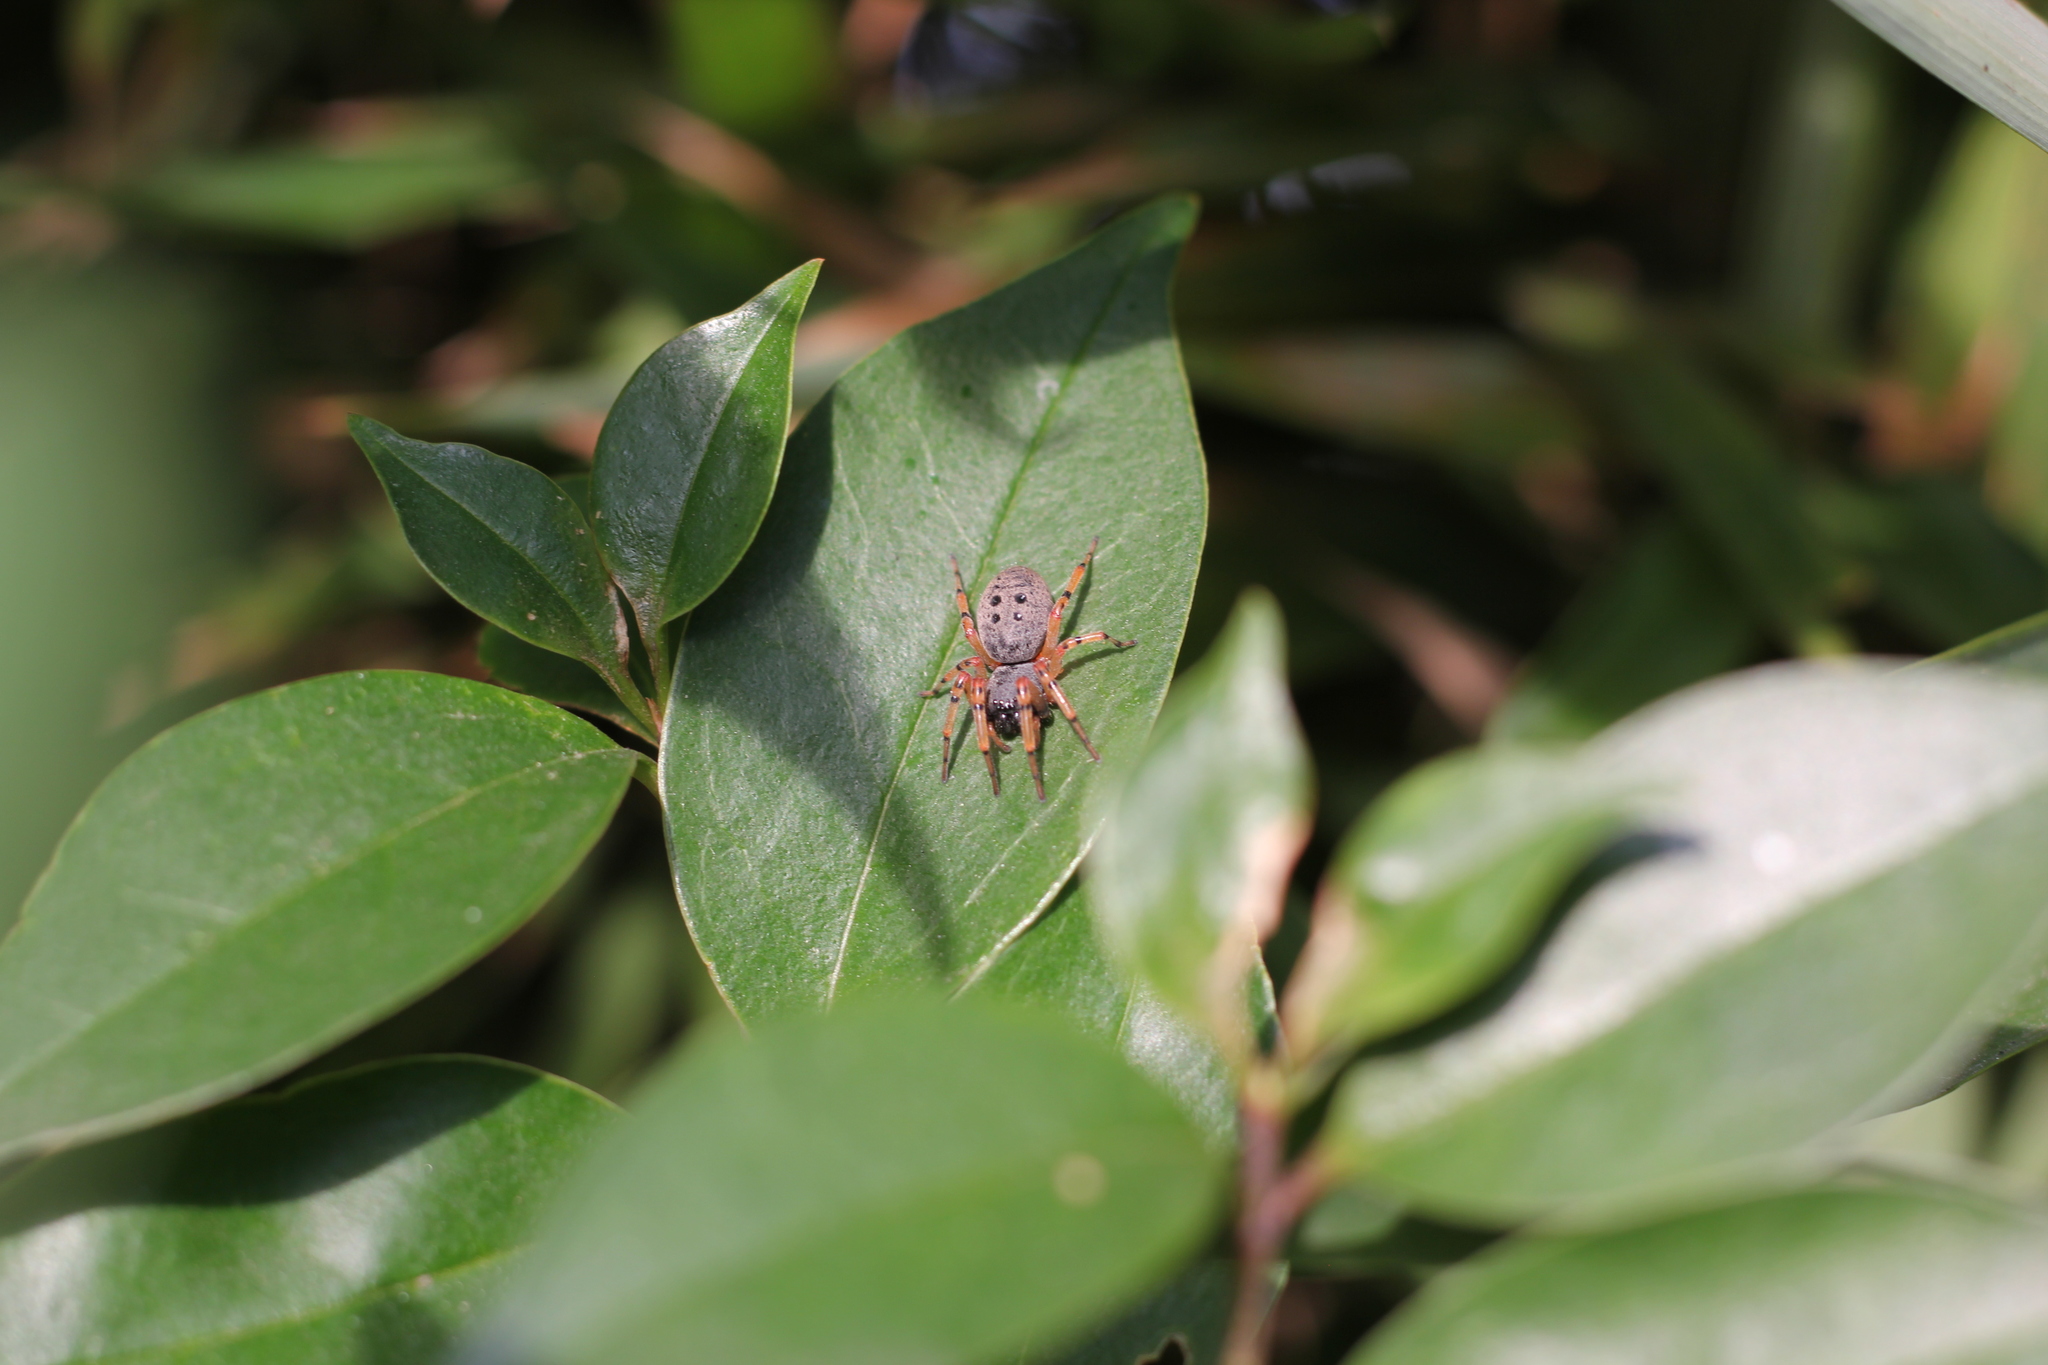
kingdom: Animalia
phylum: Arthropoda
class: Arachnida
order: Araneae
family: Trachelidae
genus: Trachelopachys
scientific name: Trachelopachys
